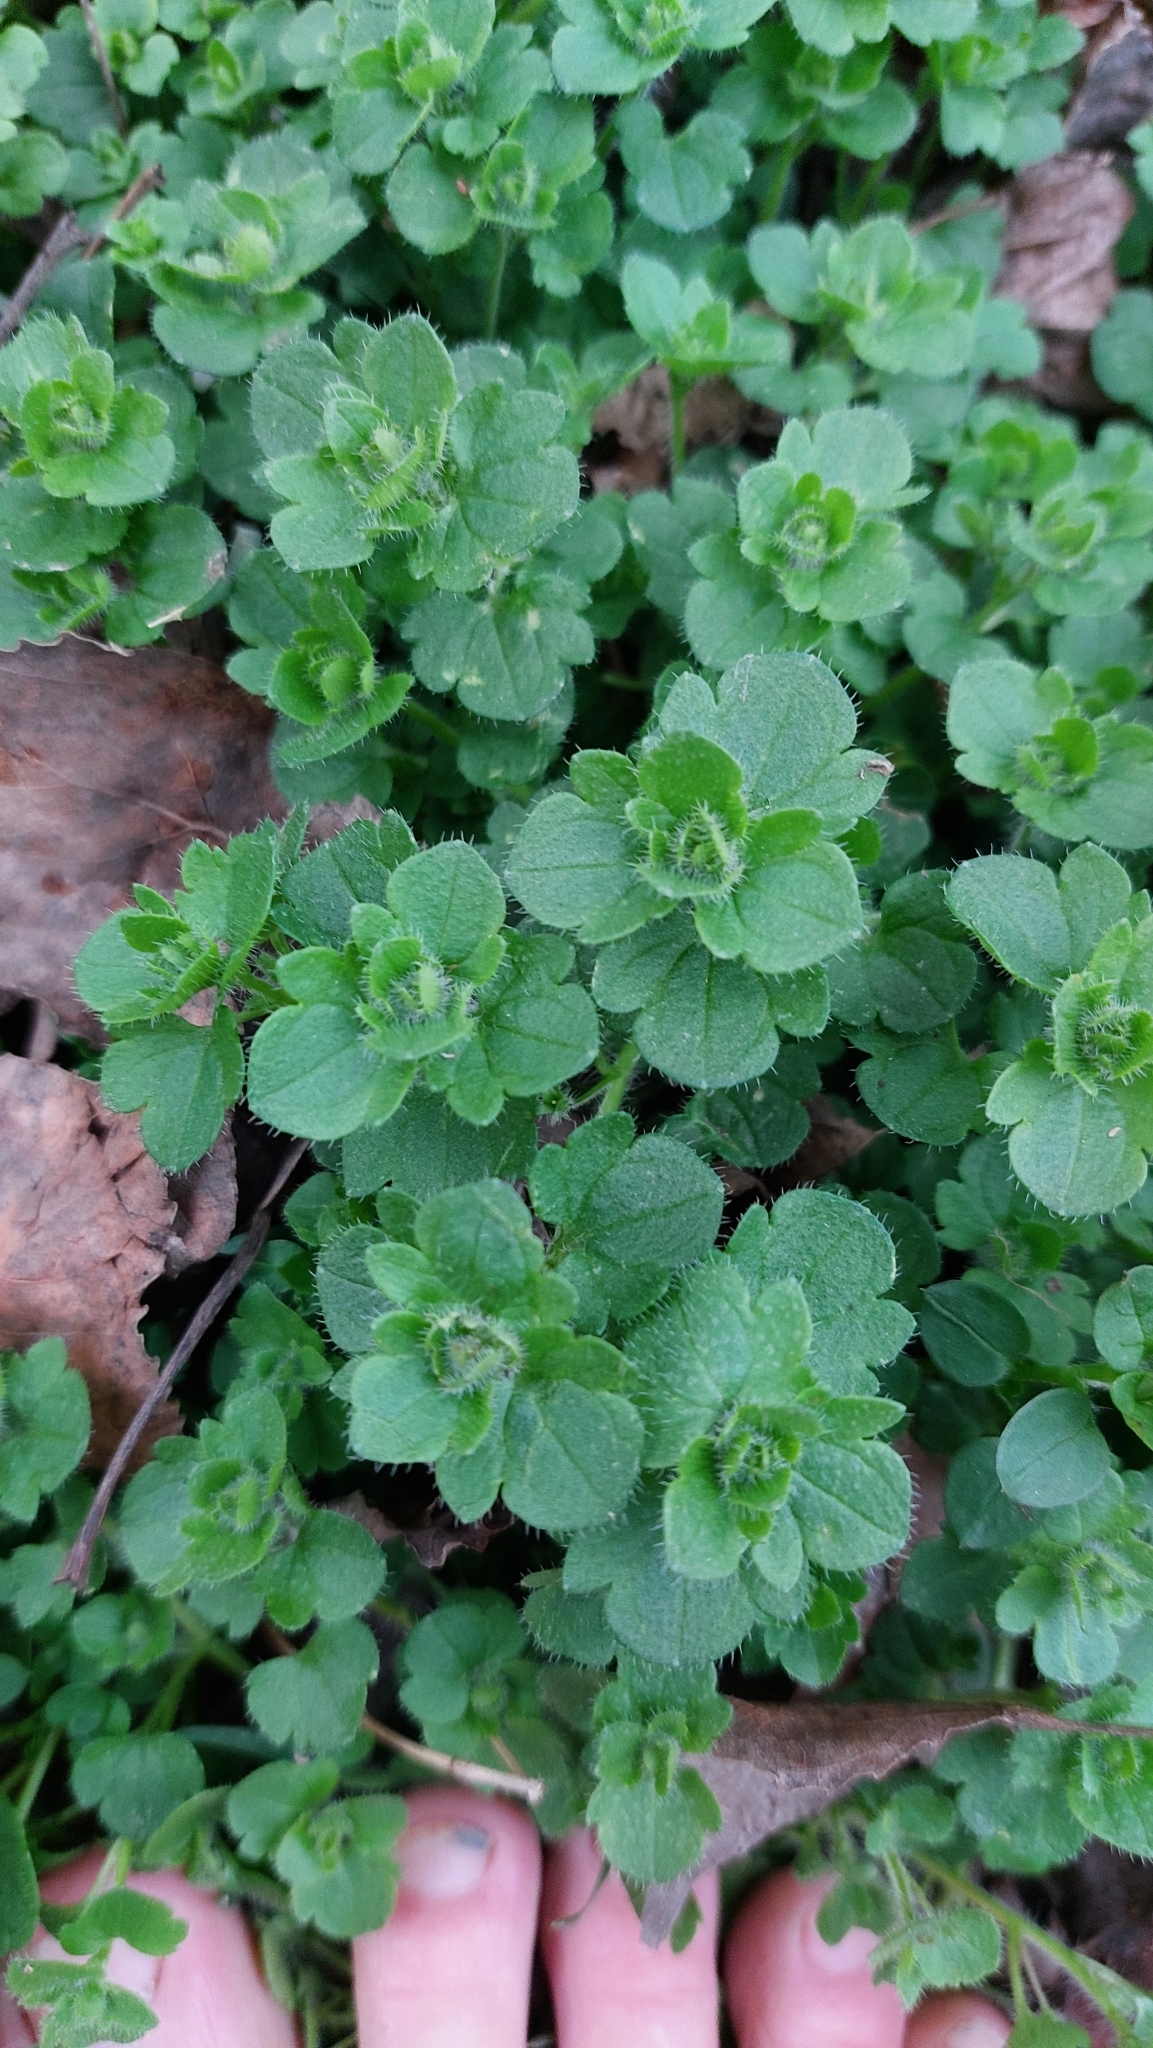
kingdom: Plantae
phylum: Tracheophyta
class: Magnoliopsida
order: Lamiales
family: Plantaginaceae
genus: Veronica
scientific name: Veronica
